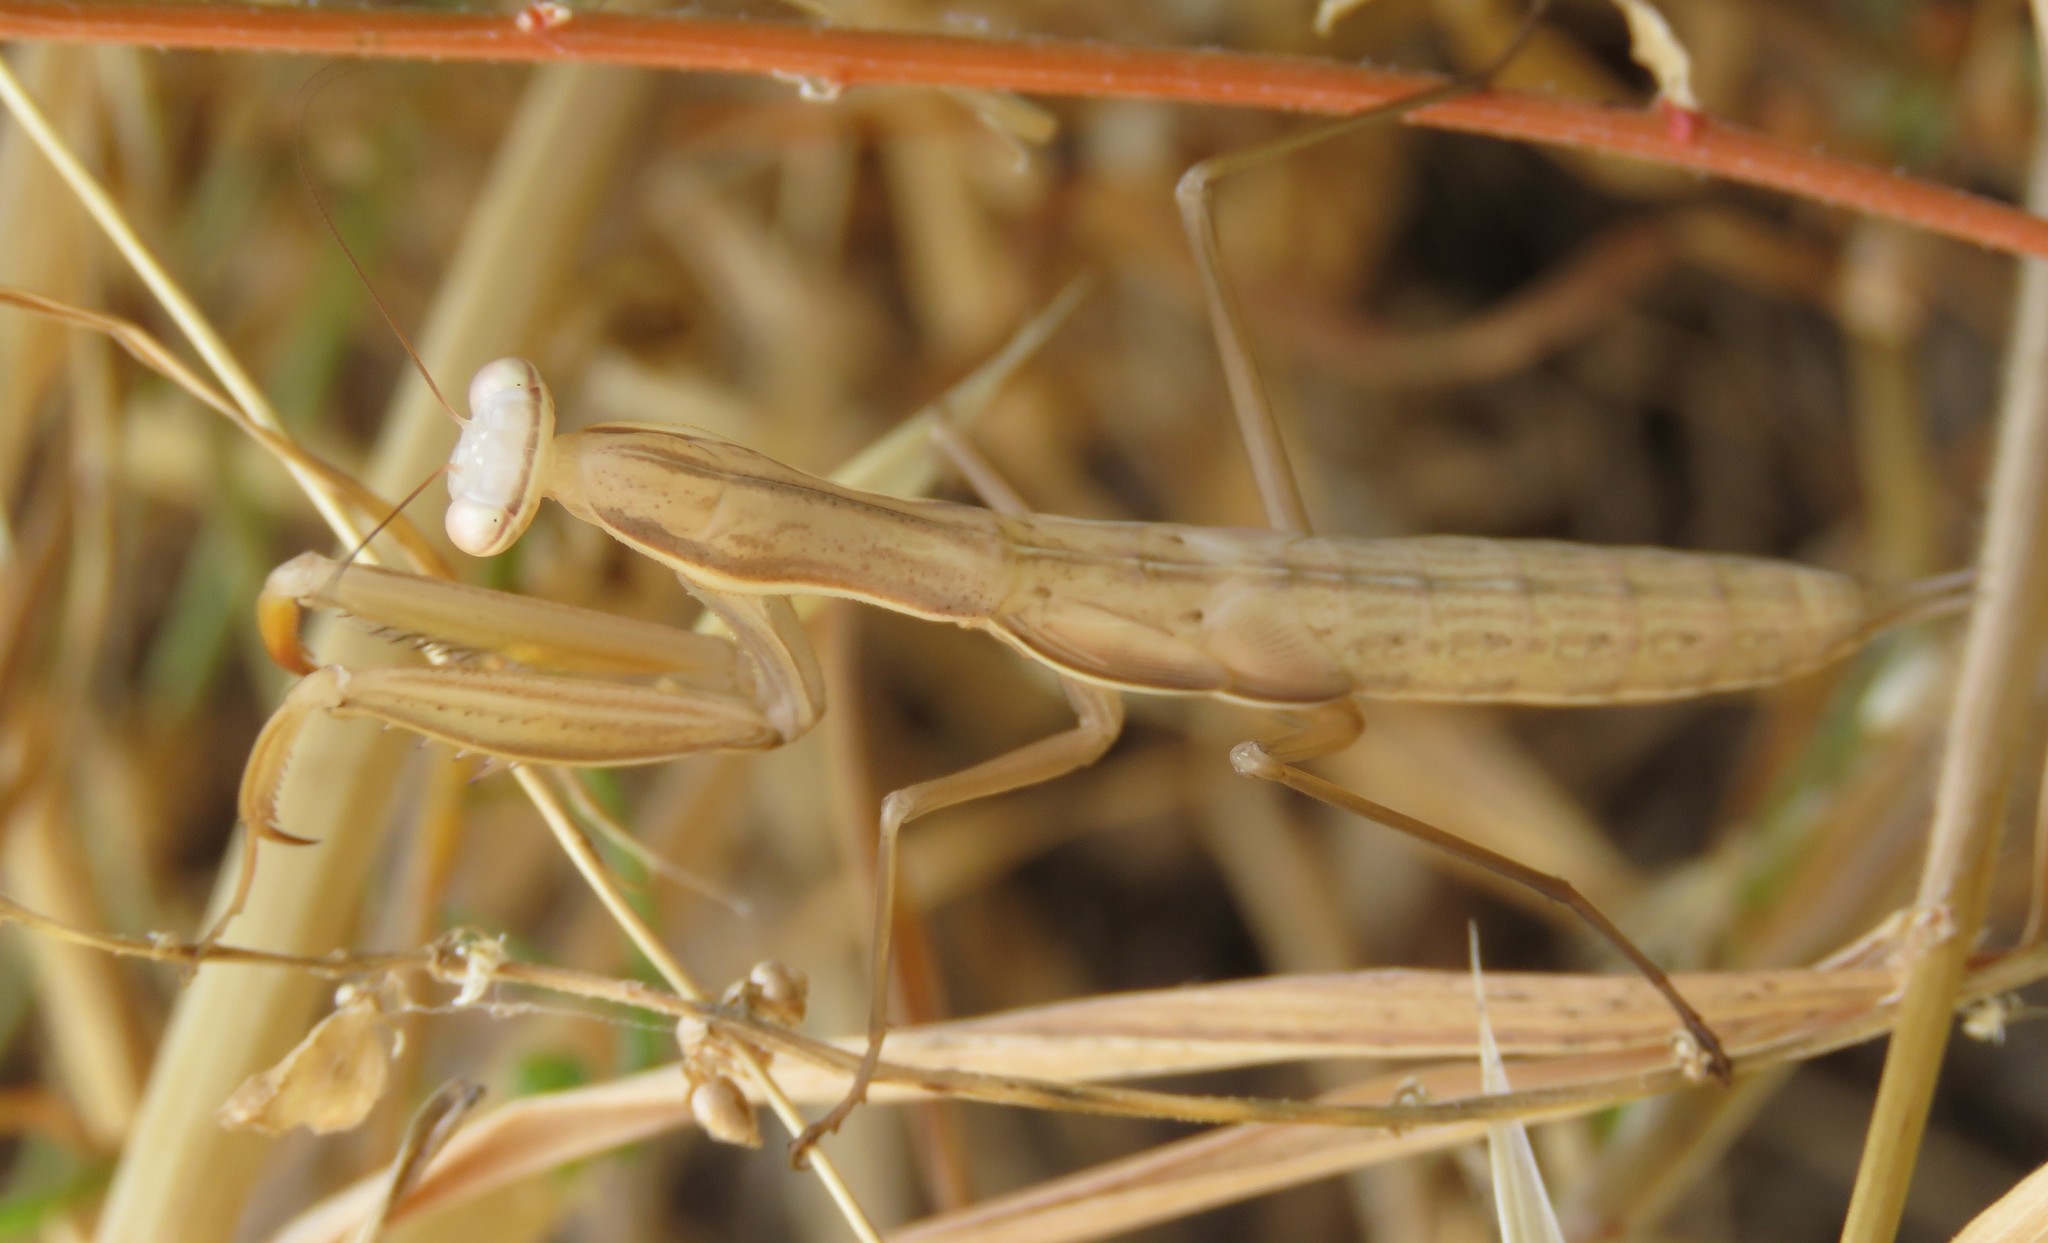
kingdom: Animalia
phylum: Arthropoda
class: Insecta
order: Mantodea
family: Mantidae
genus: Mantis
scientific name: Mantis religiosa
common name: Praying mantis
